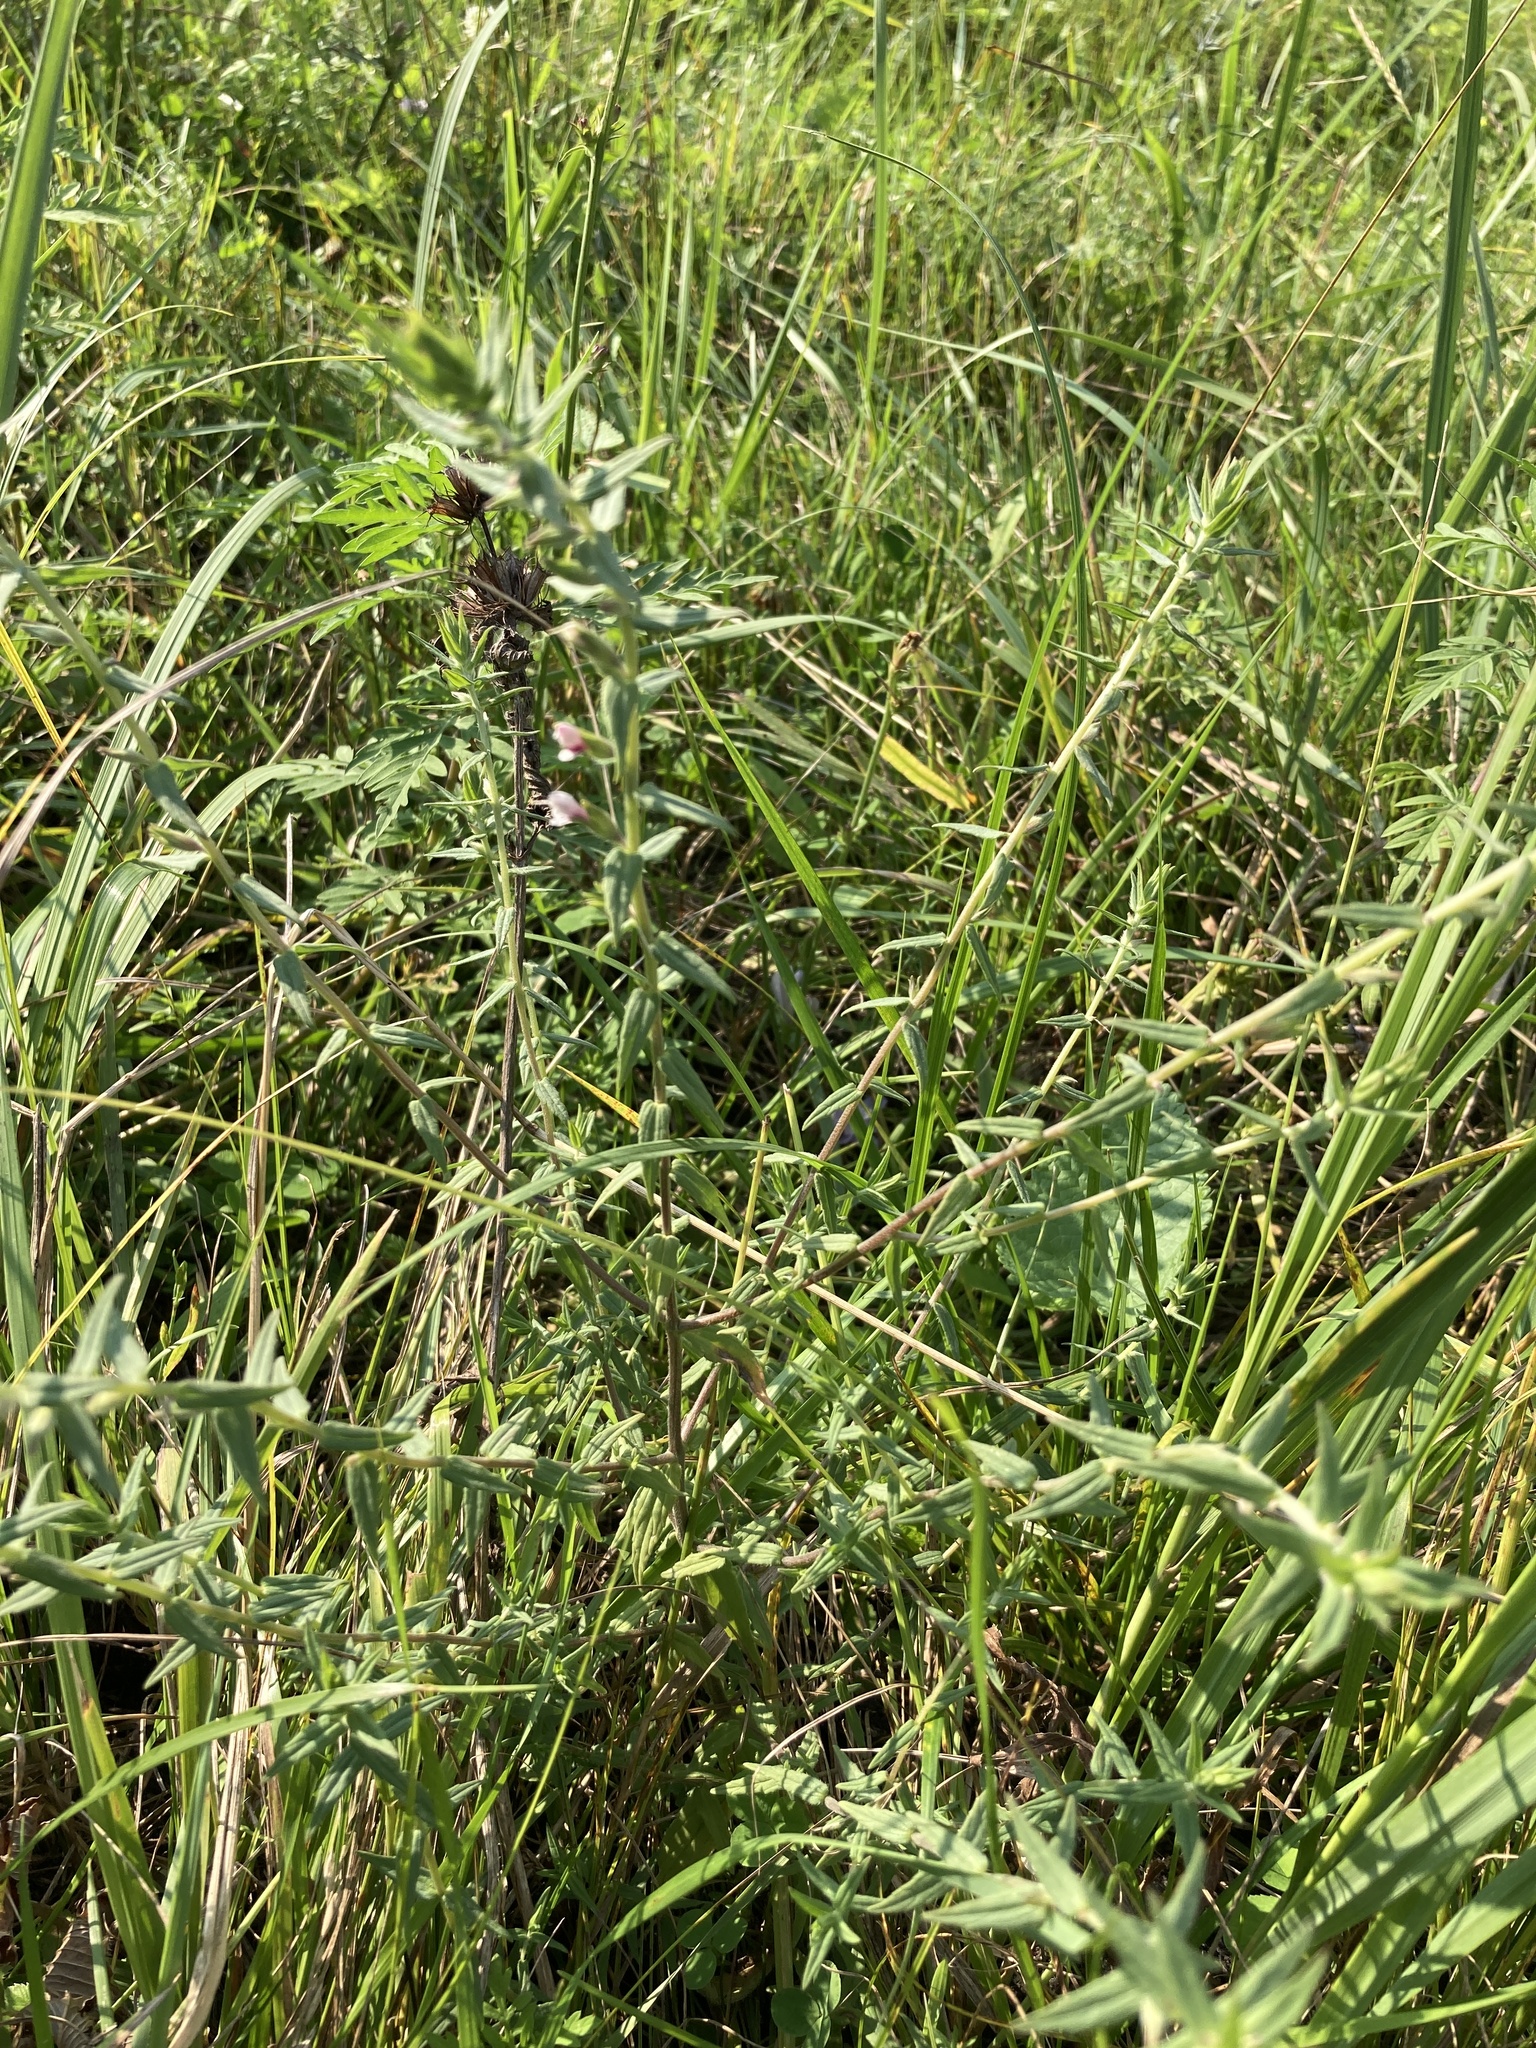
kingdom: Plantae
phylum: Tracheophyta
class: Magnoliopsida
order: Lamiales
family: Orobanchaceae
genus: Odontites
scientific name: Odontites vulgaris
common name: Broomrape
